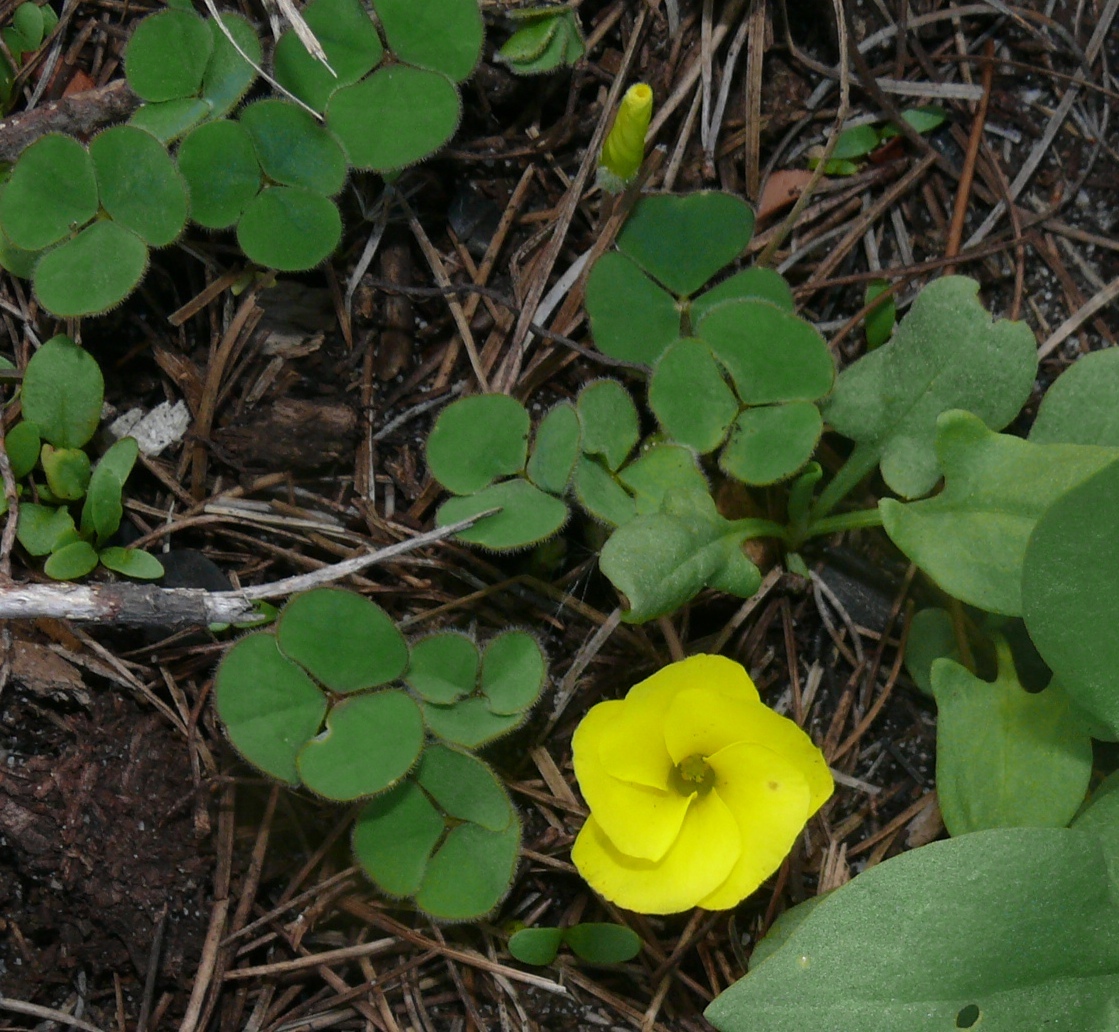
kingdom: Plantae
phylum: Tracheophyta
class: Magnoliopsida
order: Oxalidales
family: Oxalidaceae
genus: Oxalis
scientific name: Oxalis luteola
